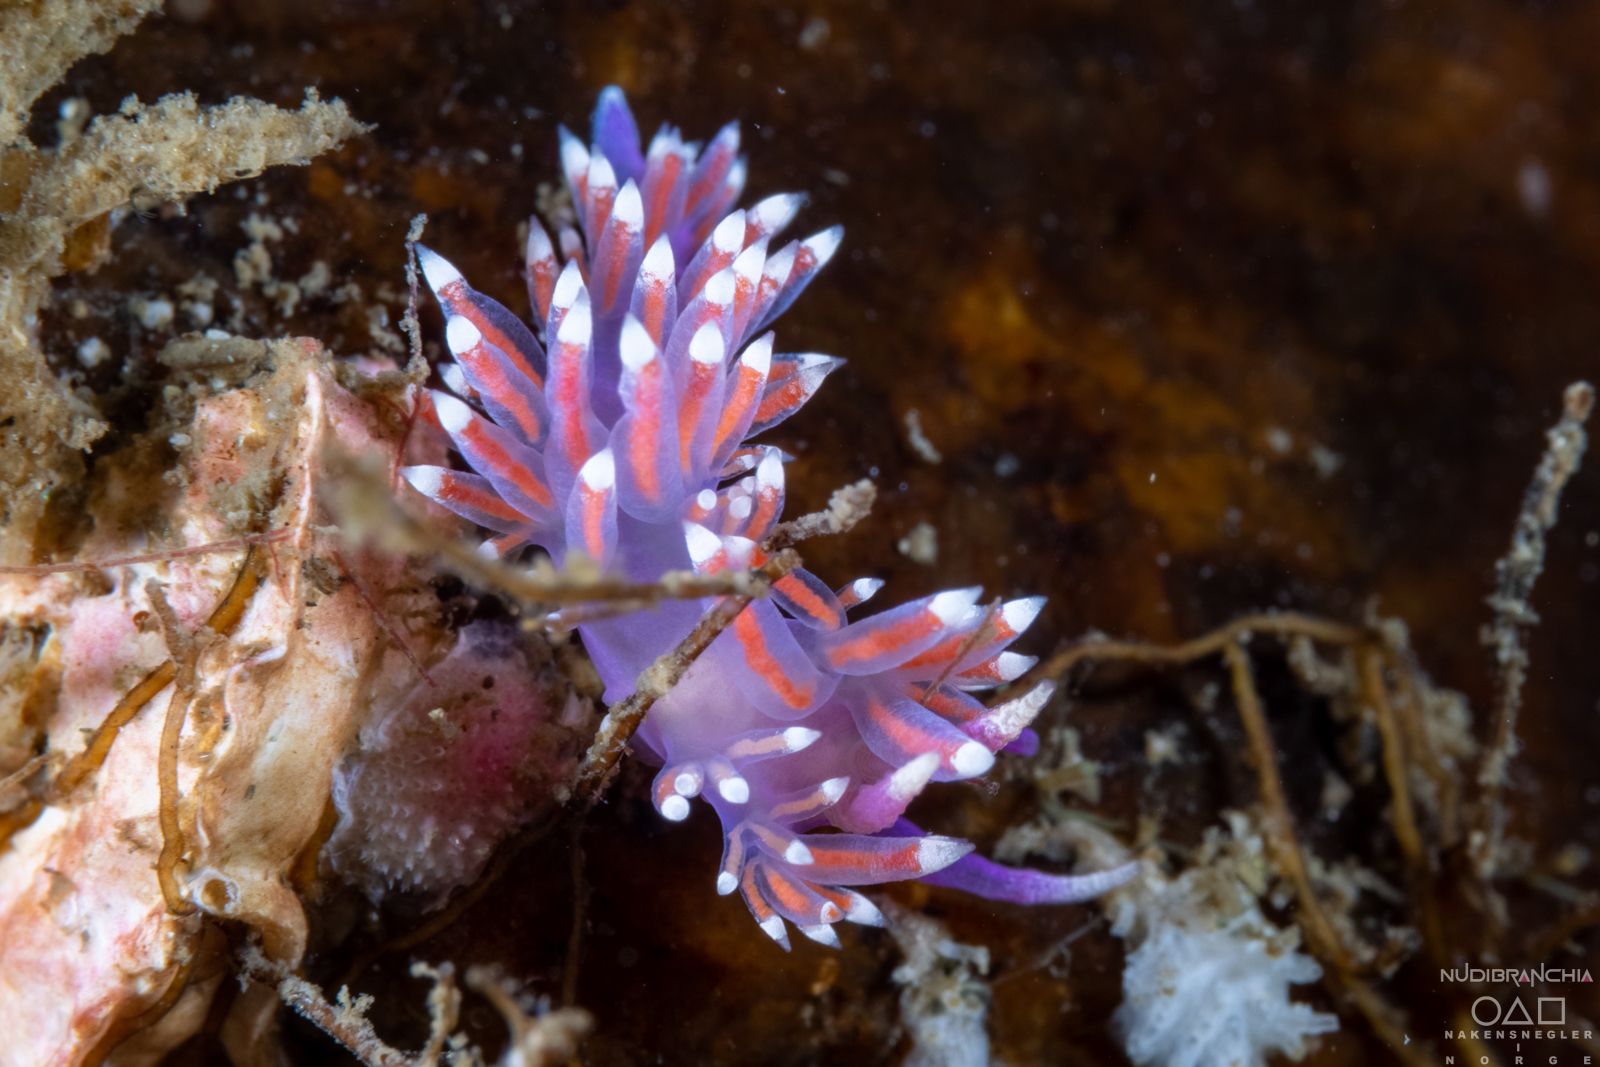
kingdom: Animalia
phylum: Mollusca
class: Gastropoda
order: Nudibranchia
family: Flabellinidae
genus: Edmundsella
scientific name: Edmundsella pedata
